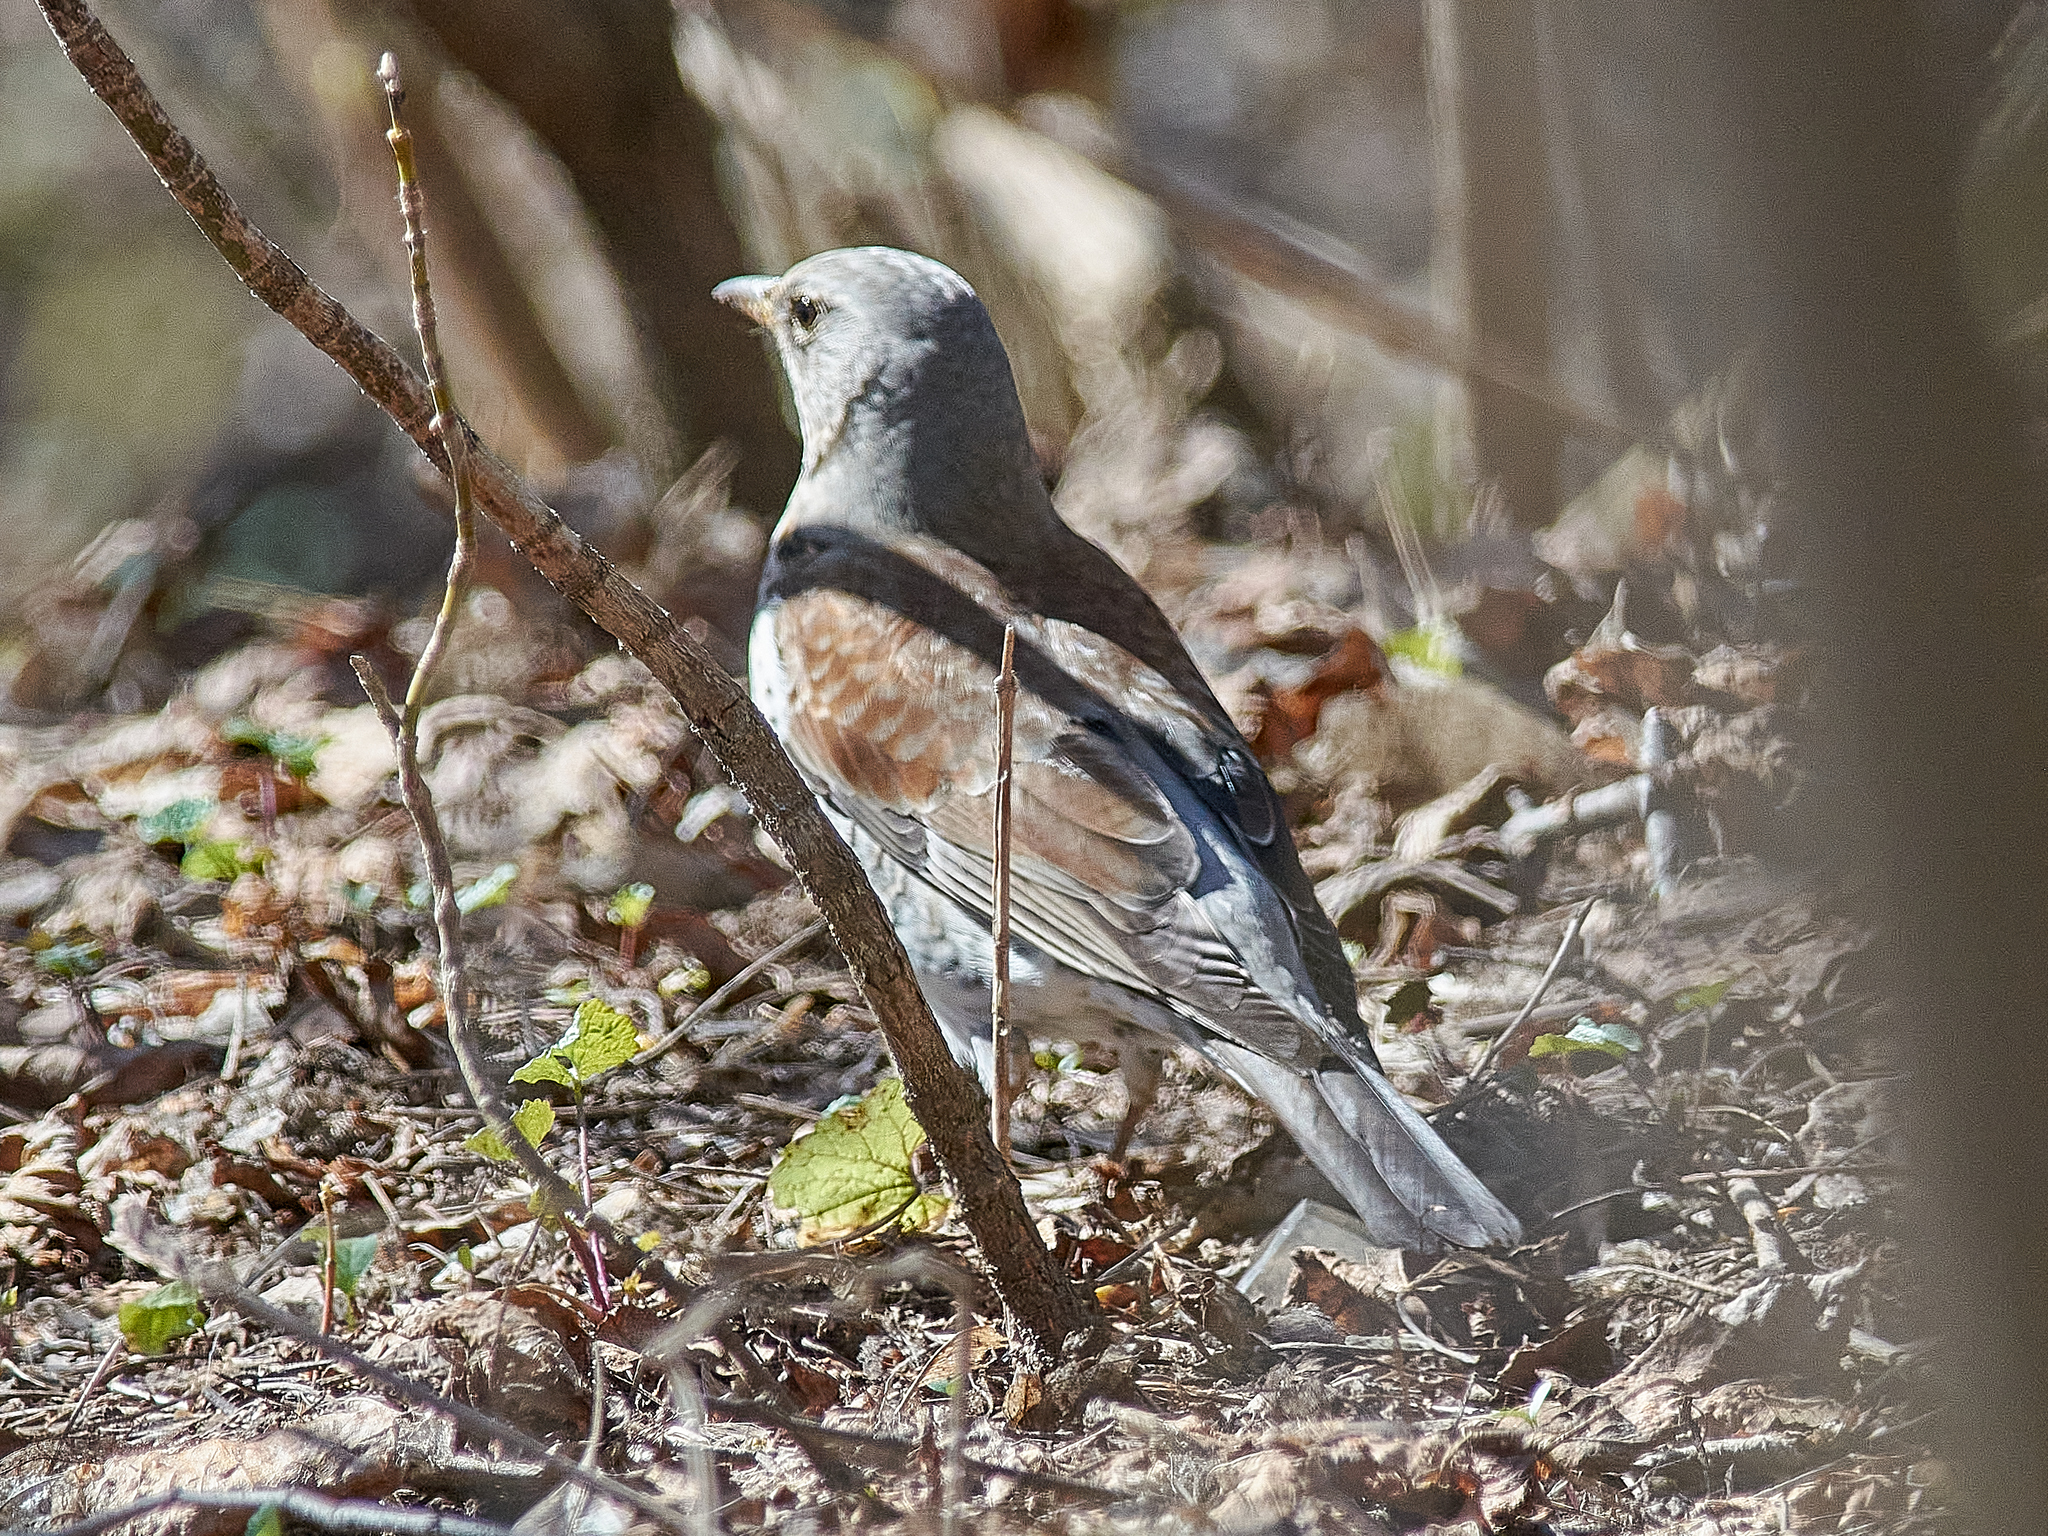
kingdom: Animalia
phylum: Chordata
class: Aves
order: Passeriformes
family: Turdidae
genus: Turdus
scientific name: Turdus pilaris
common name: Fieldfare
